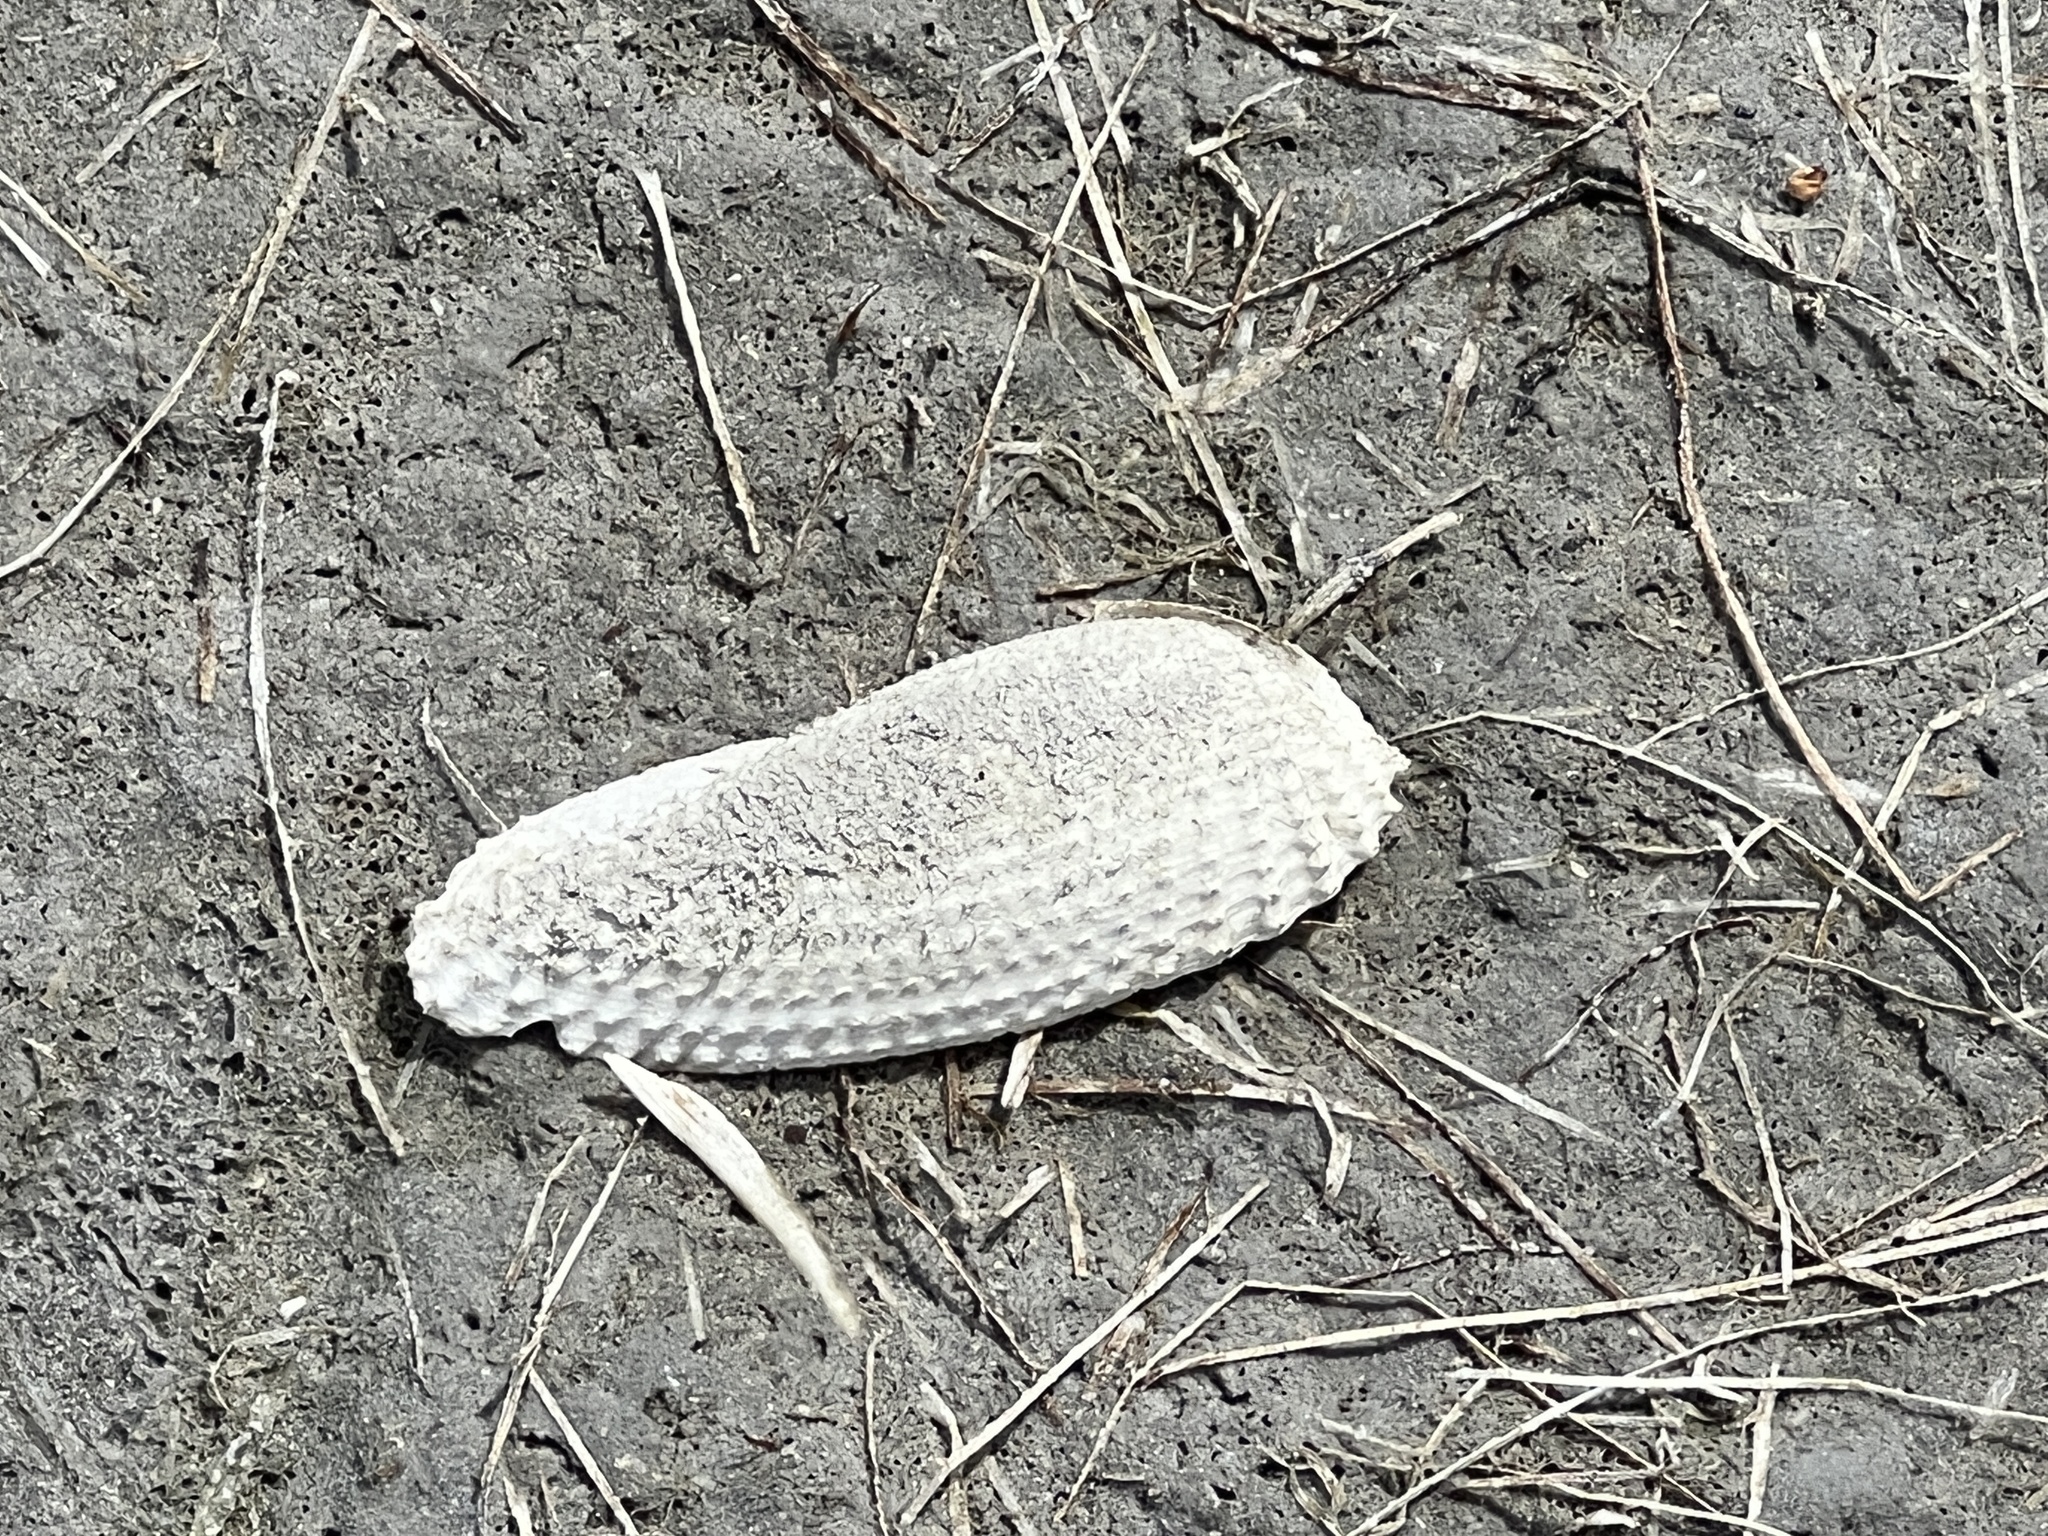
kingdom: Animalia
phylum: Mollusca
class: Bivalvia
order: Myida
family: Pholadidae
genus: Cyrtopleura
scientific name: Cyrtopleura costata
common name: Angel wing
